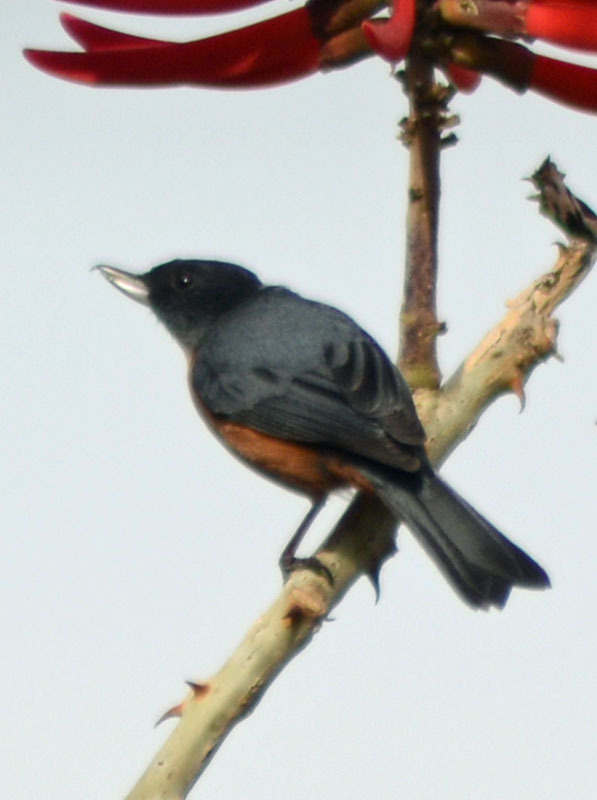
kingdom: Animalia
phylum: Chordata
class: Aves
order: Passeriformes
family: Thraupidae
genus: Diglossa
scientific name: Diglossa baritula
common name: Cinnamon-bellied flowerpiercer
